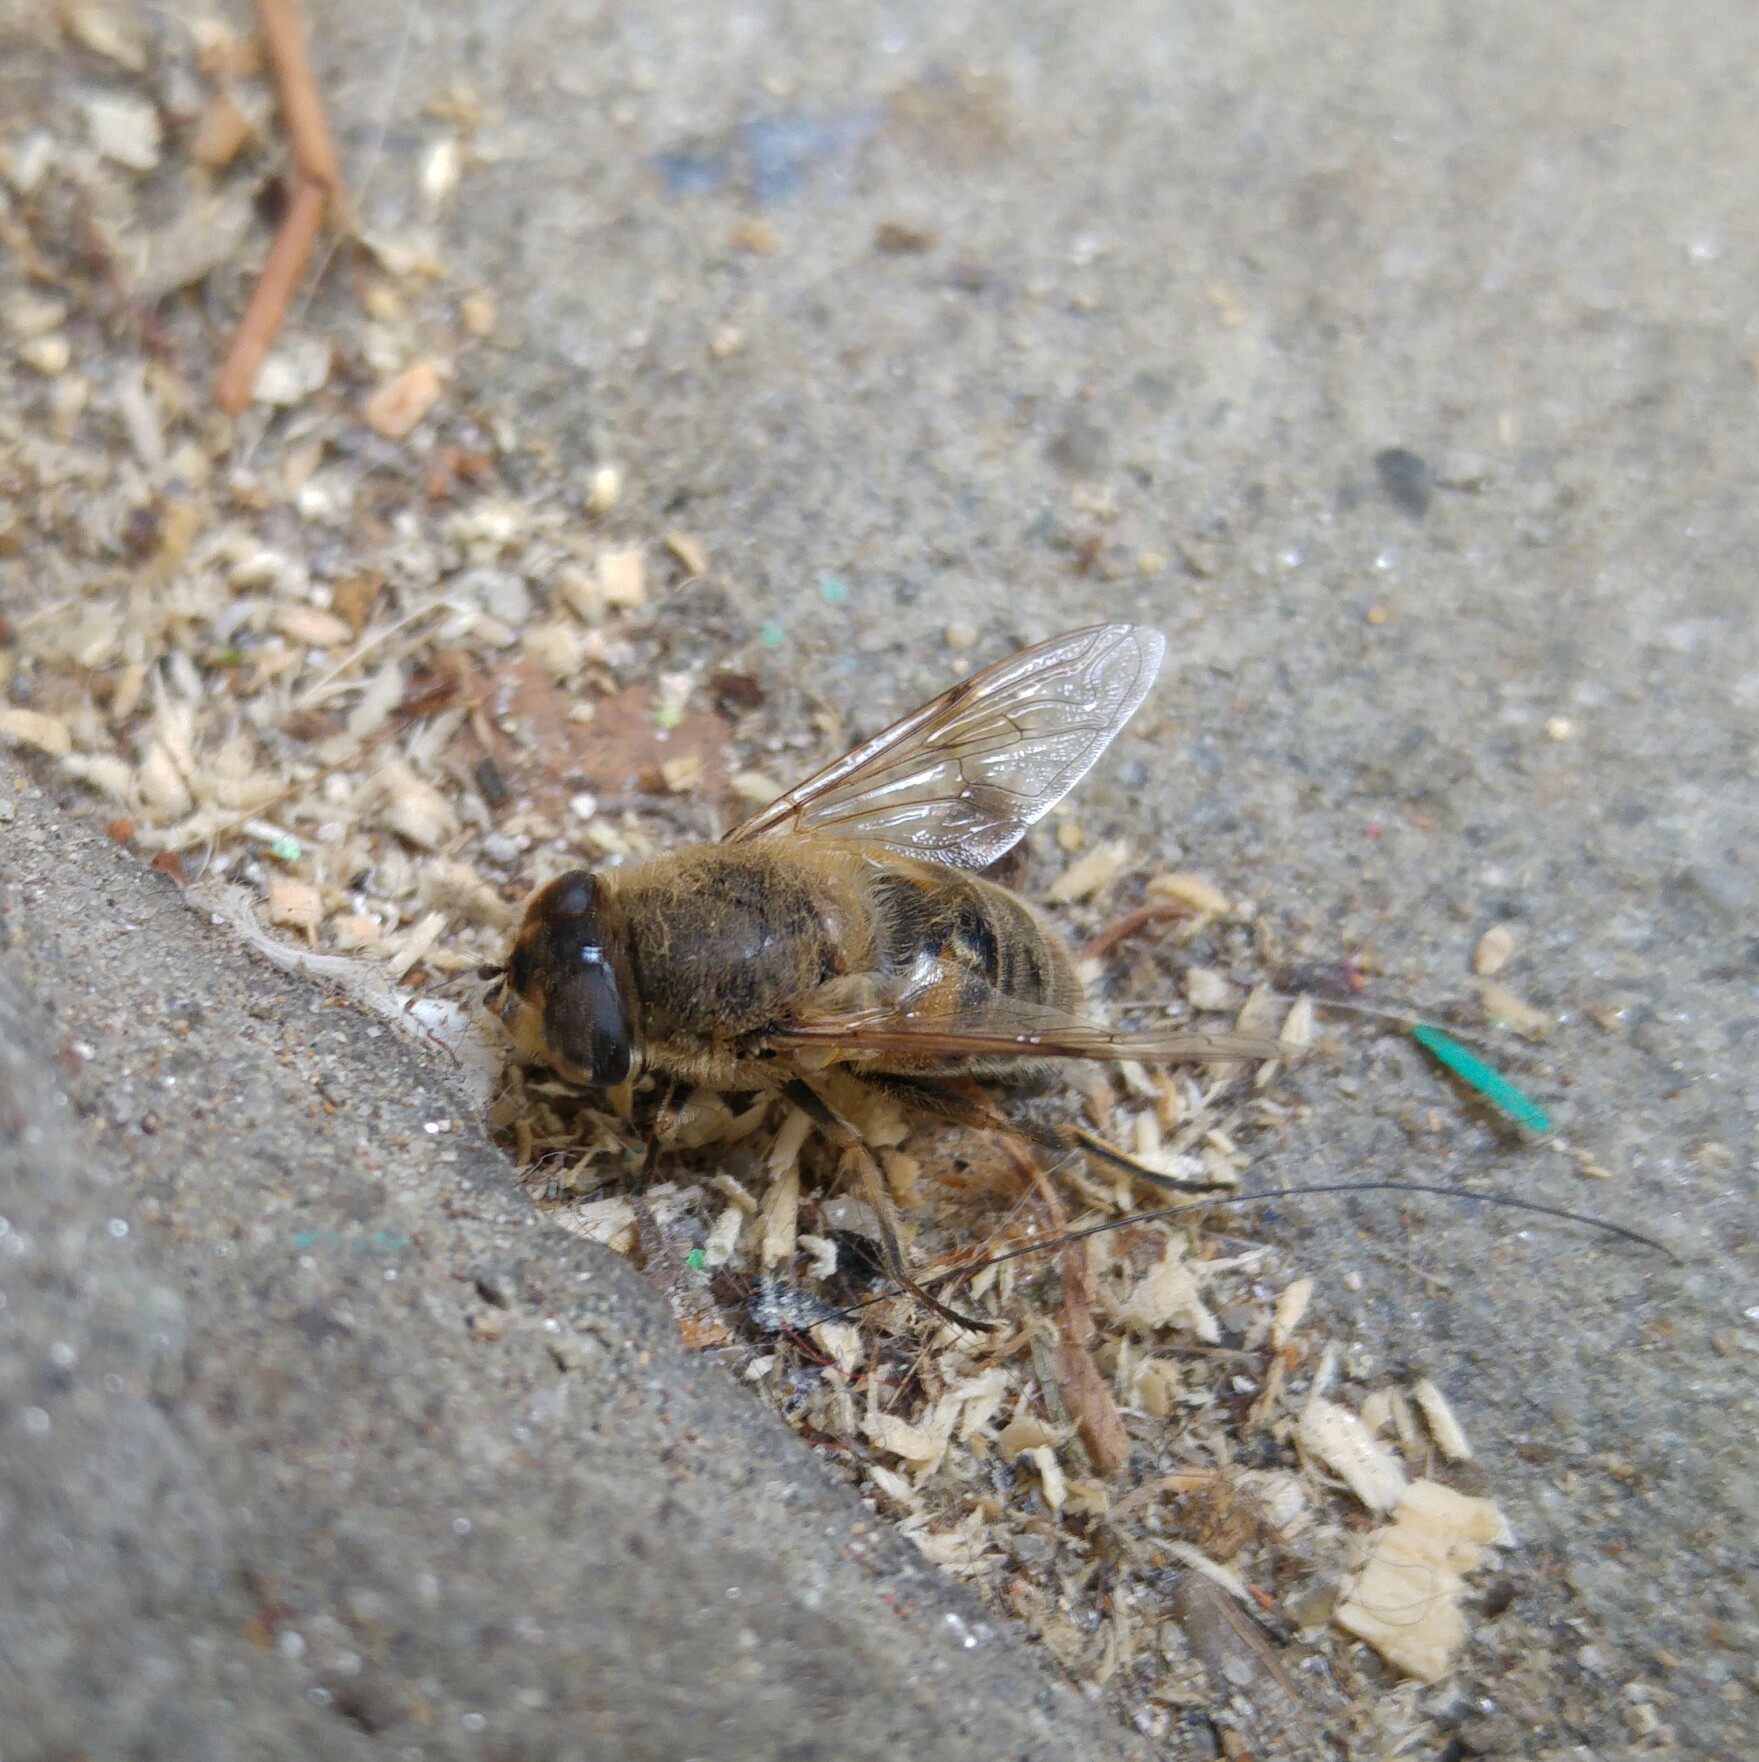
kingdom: Animalia
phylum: Arthropoda
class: Insecta
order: Diptera
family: Syrphidae
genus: Eristalis
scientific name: Eristalis tenax
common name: Drone fly
